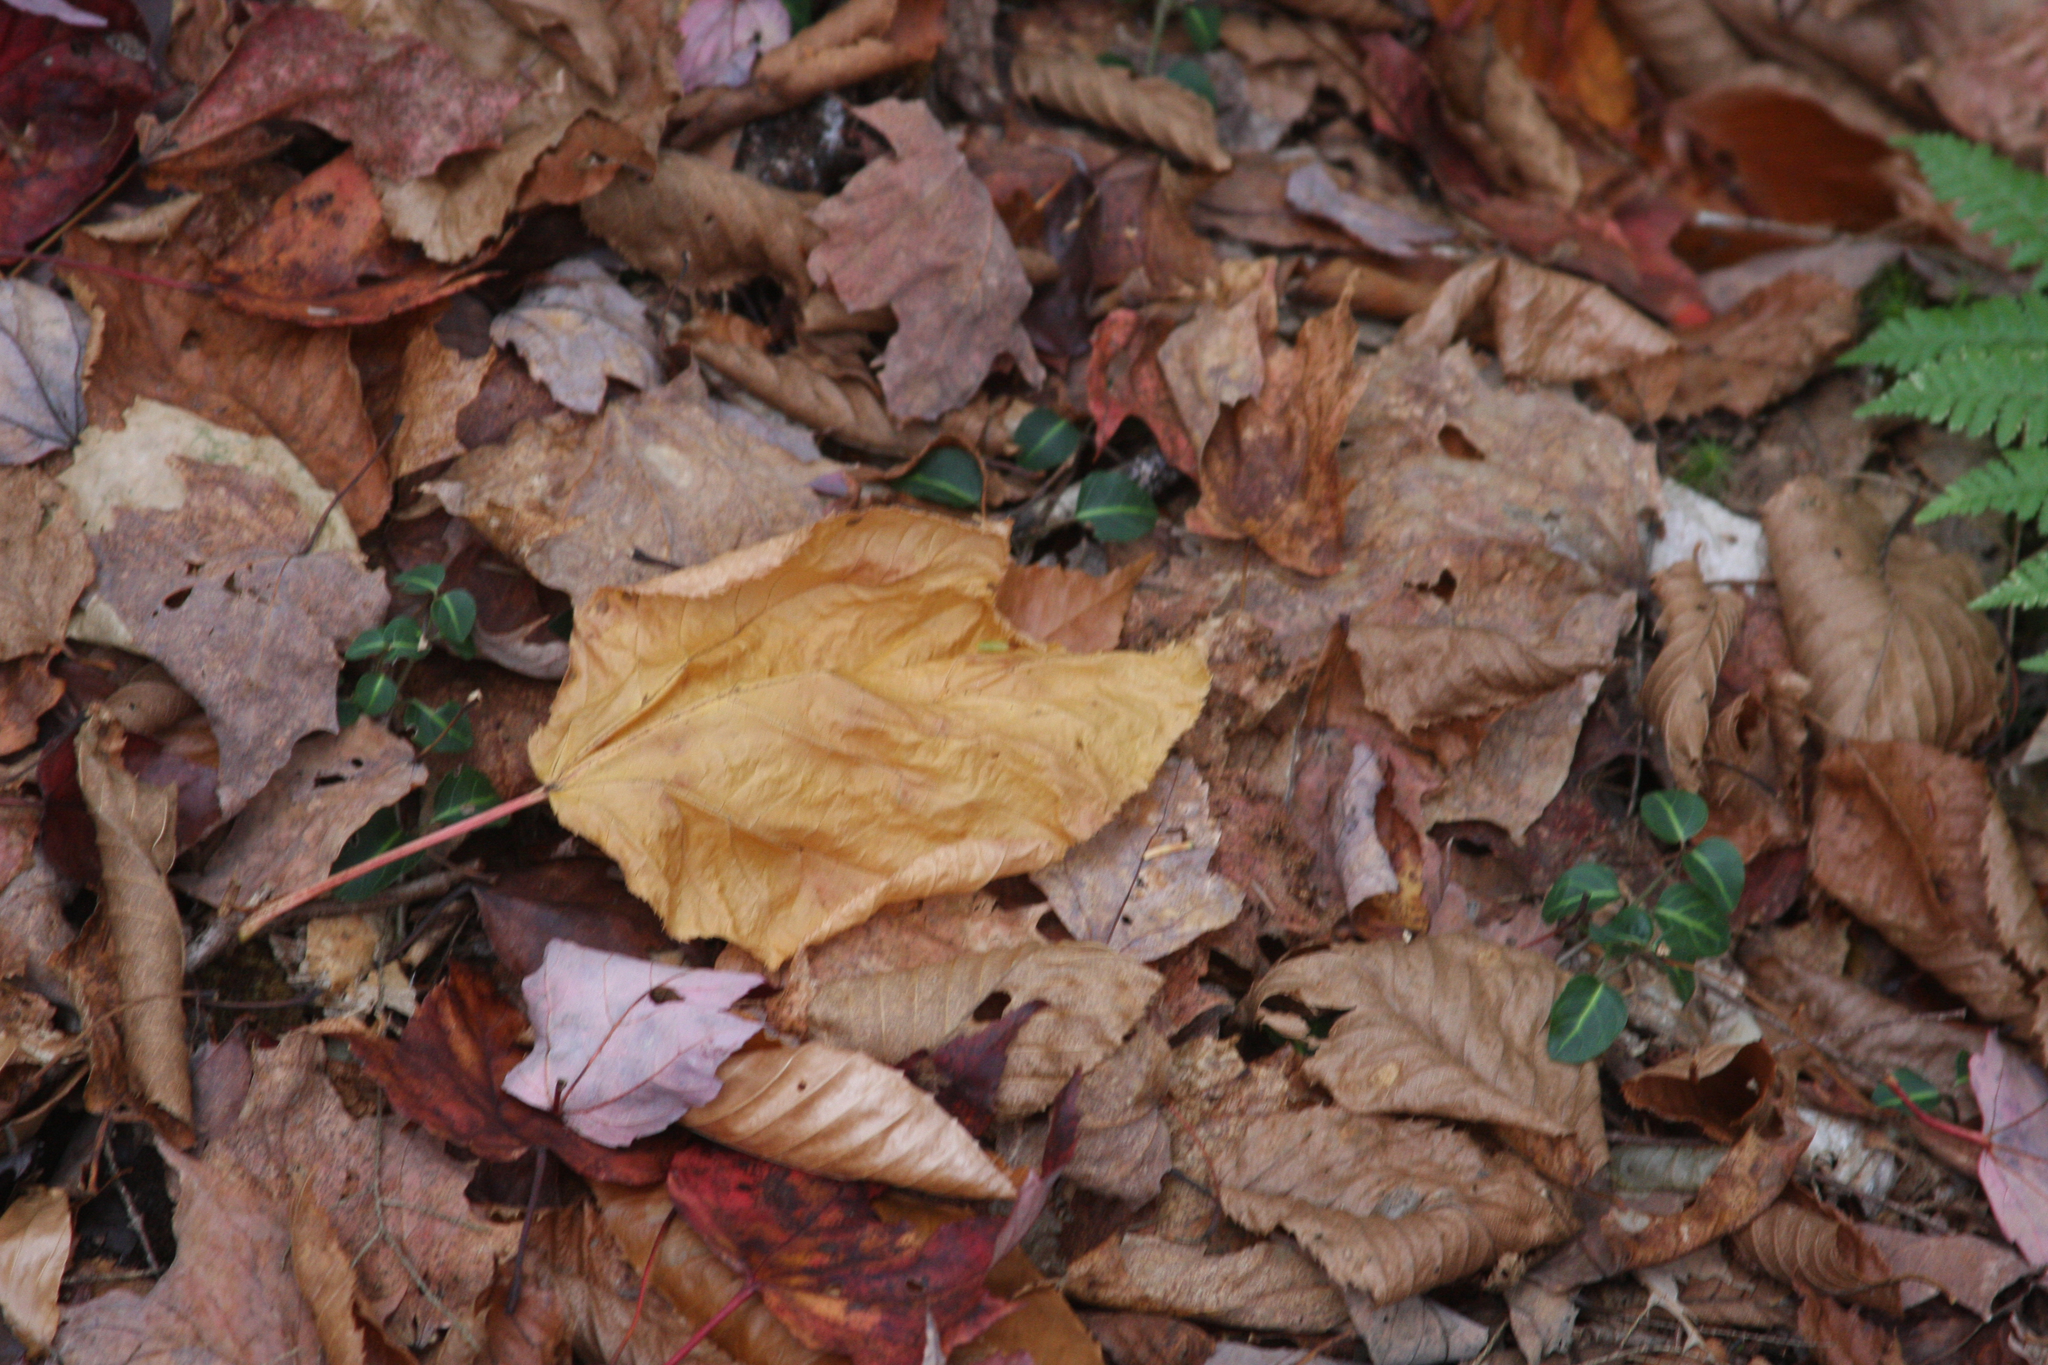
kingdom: Plantae
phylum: Tracheophyta
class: Magnoliopsida
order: Gentianales
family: Rubiaceae
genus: Mitchella
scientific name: Mitchella repens
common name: Partridge-berry
